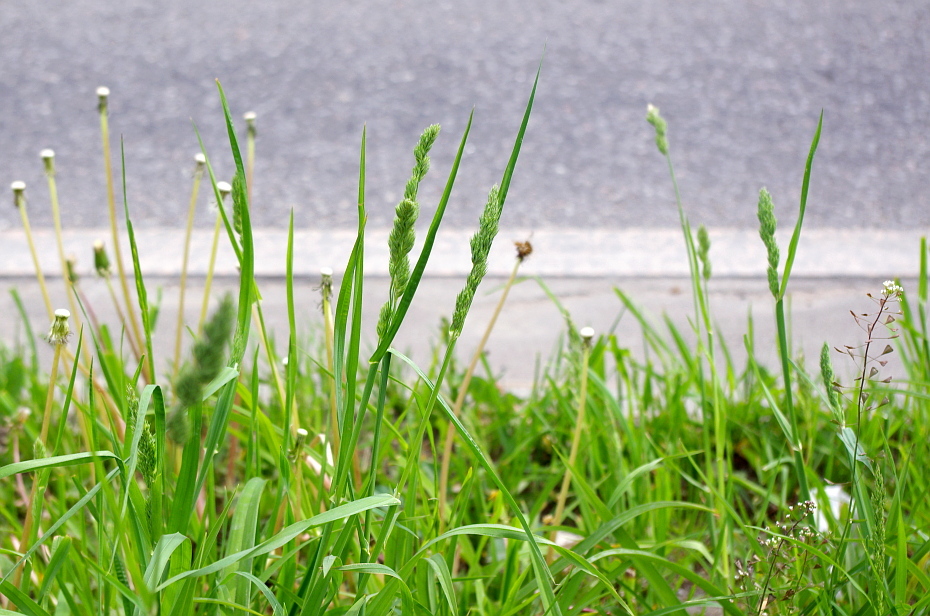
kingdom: Plantae
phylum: Tracheophyta
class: Liliopsida
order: Poales
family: Poaceae
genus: Dactylis
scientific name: Dactylis glomerata
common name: Orchardgrass
